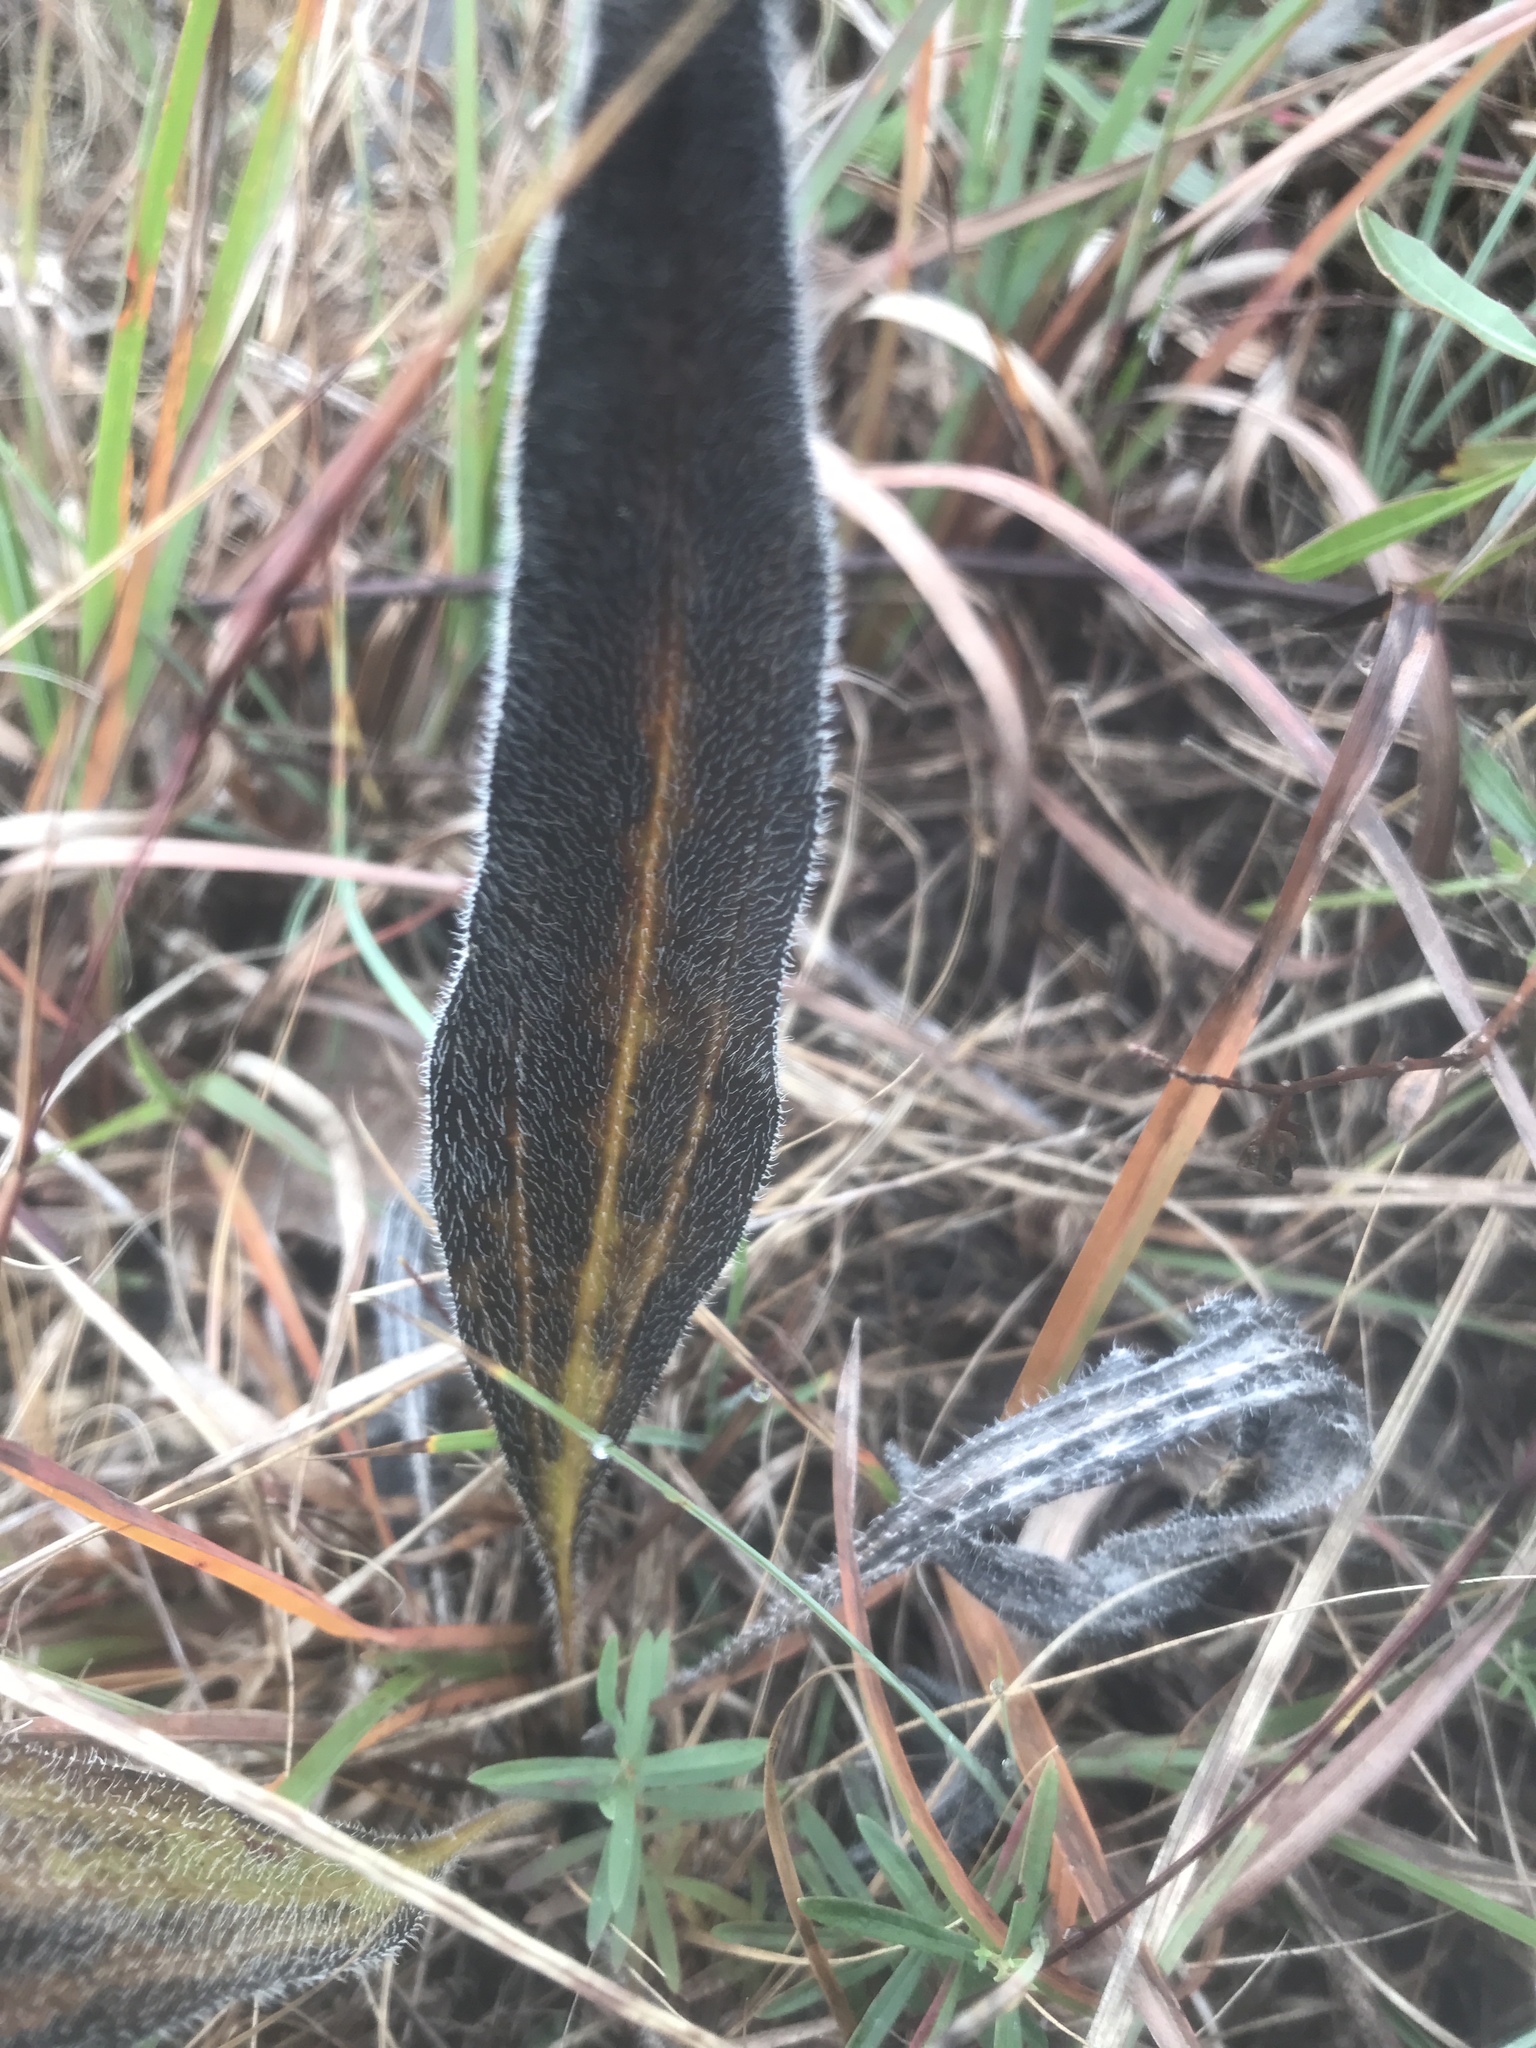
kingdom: Plantae
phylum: Tracheophyta
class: Magnoliopsida
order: Asterales
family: Asteraceae
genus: Echinacea
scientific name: Echinacea simulata
